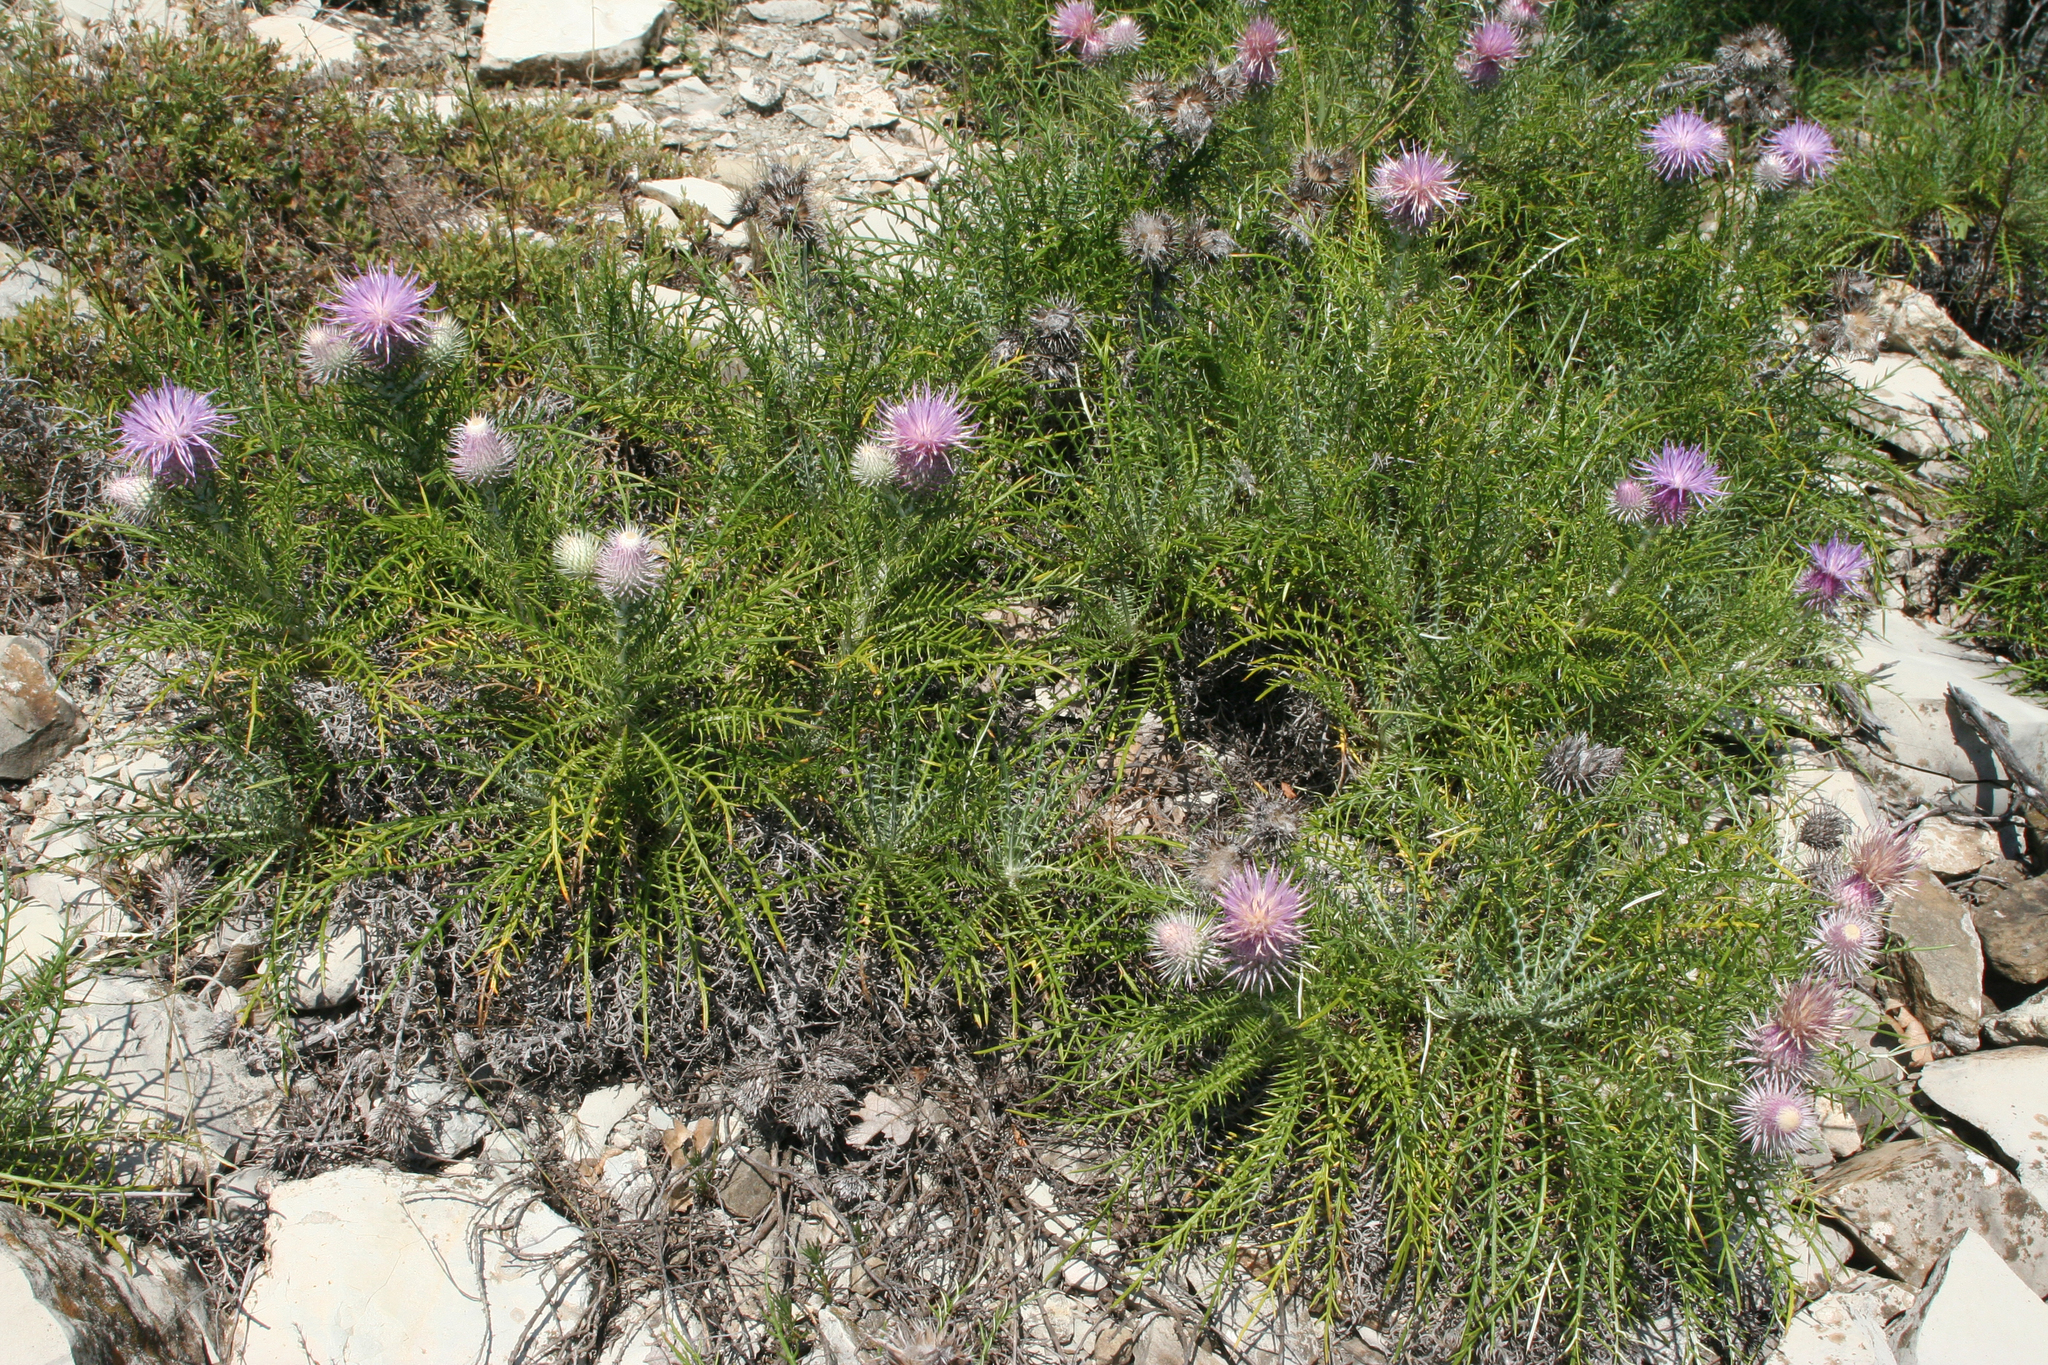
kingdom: Plantae
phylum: Tracheophyta
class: Magnoliopsida
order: Asterales
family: Asteraceae
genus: Ptilostemon
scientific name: Ptilostemon echinocephalus
